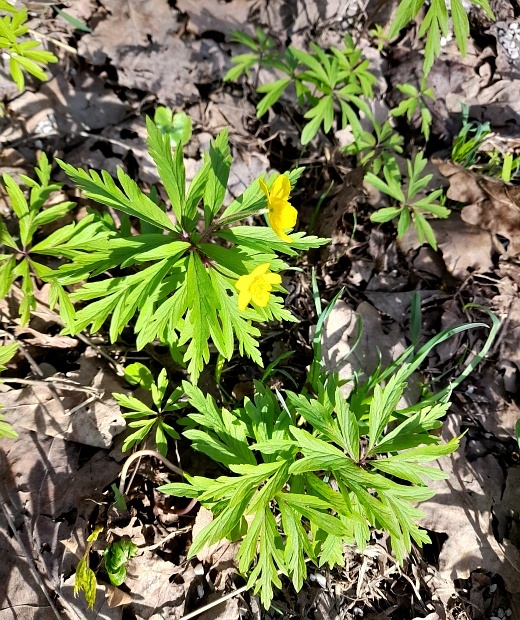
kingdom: Plantae
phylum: Tracheophyta
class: Magnoliopsida
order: Ranunculales
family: Ranunculaceae
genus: Anemone
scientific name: Anemone ranunculoides
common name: Yellow anemone
